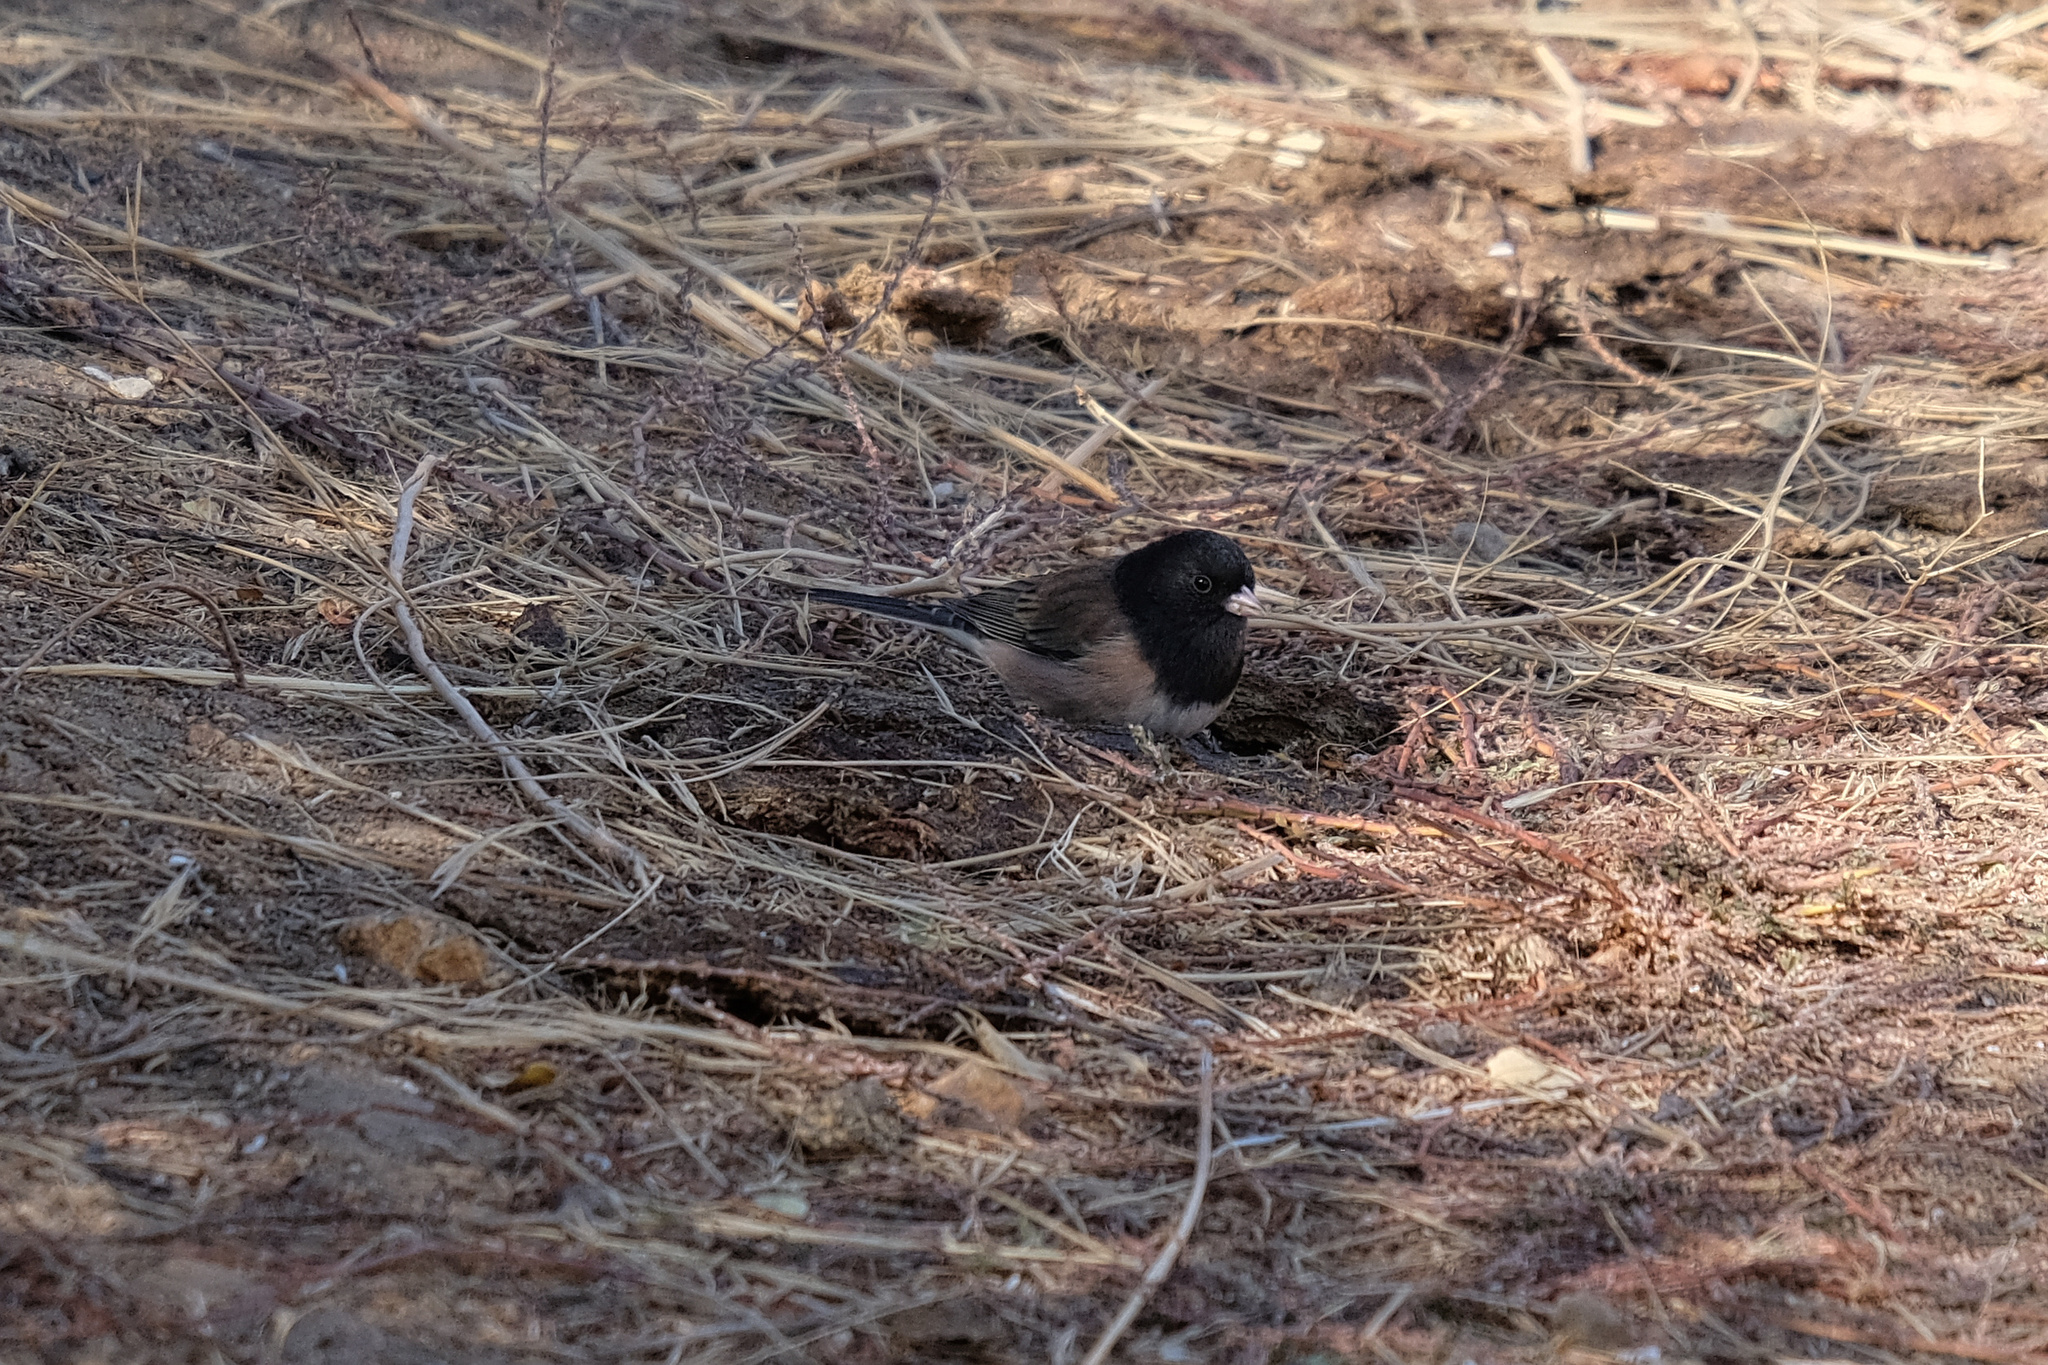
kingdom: Animalia
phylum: Chordata
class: Aves
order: Passeriformes
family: Passerellidae
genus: Junco
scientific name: Junco hyemalis
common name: Dark-eyed junco
